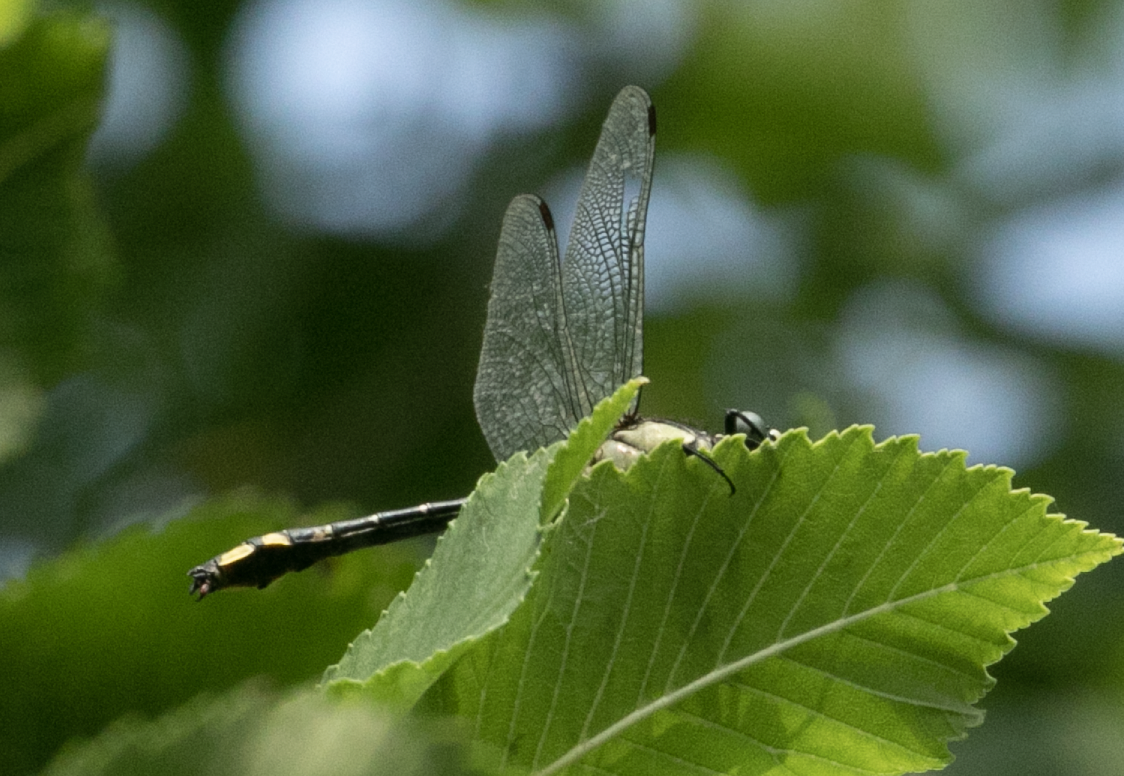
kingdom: Animalia
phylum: Arthropoda
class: Insecta
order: Odonata
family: Gomphidae
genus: Gomphus
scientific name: Gomphus vulgatissimus
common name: Club-tailed dragonfly
